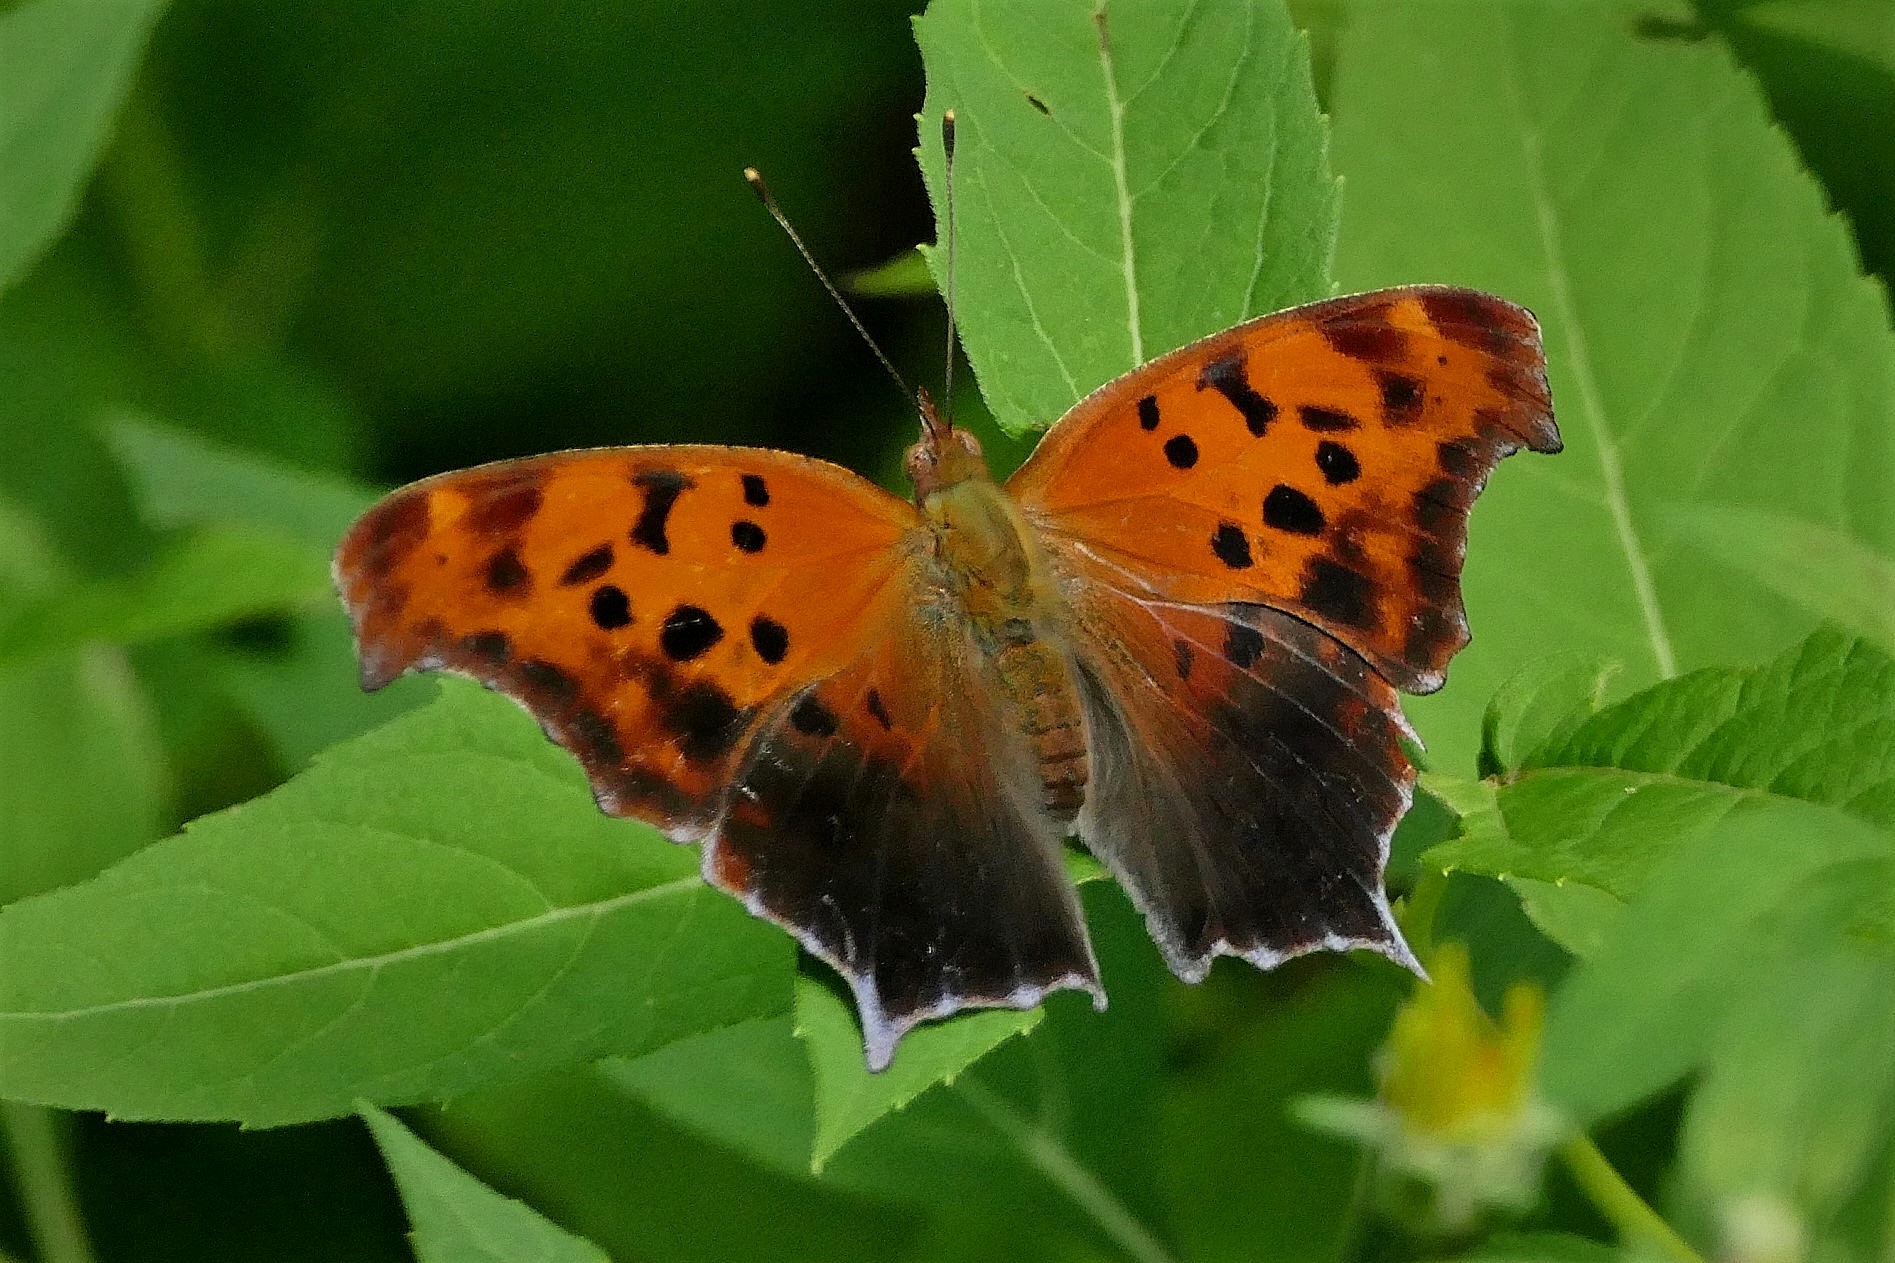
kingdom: Animalia
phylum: Arthropoda
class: Insecta
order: Lepidoptera
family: Nymphalidae
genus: Polygonia
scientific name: Polygonia interrogationis
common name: Question mark
